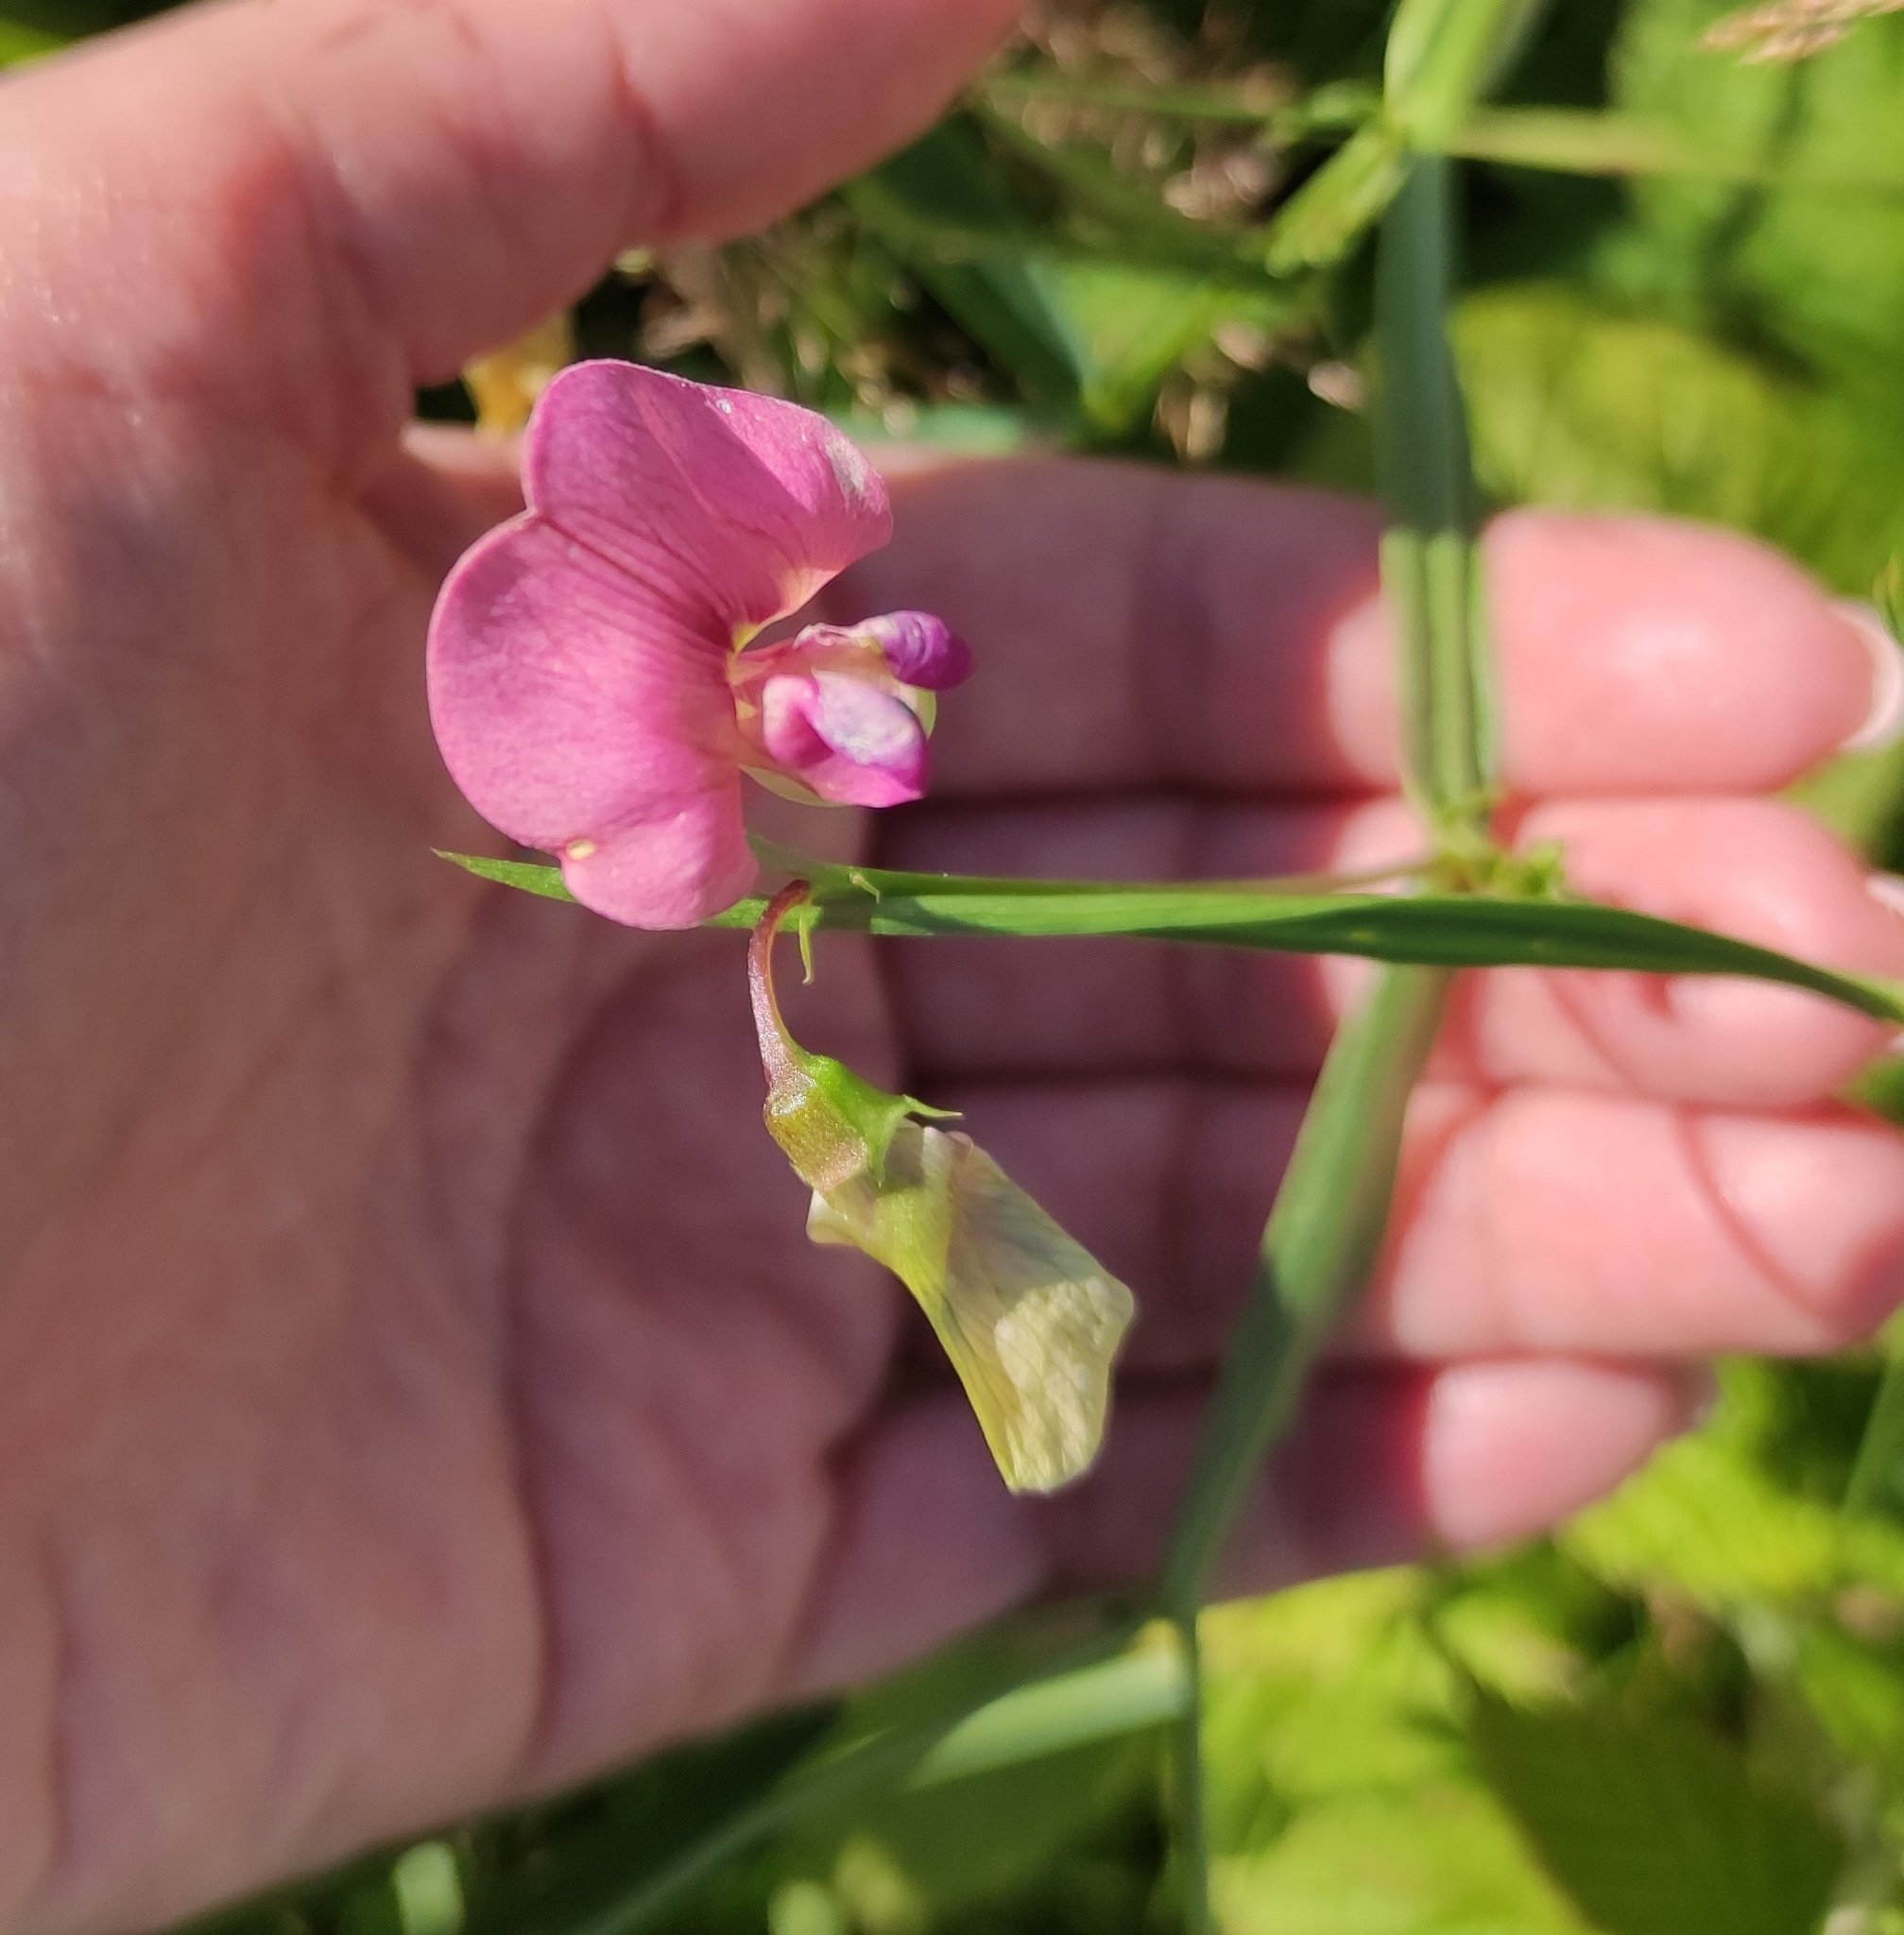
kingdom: Plantae
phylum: Tracheophyta
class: Magnoliopsida
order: Fabales
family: Fabaceae
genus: Lathyrus
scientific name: Lathyrus sylvestris
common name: Flat pea
